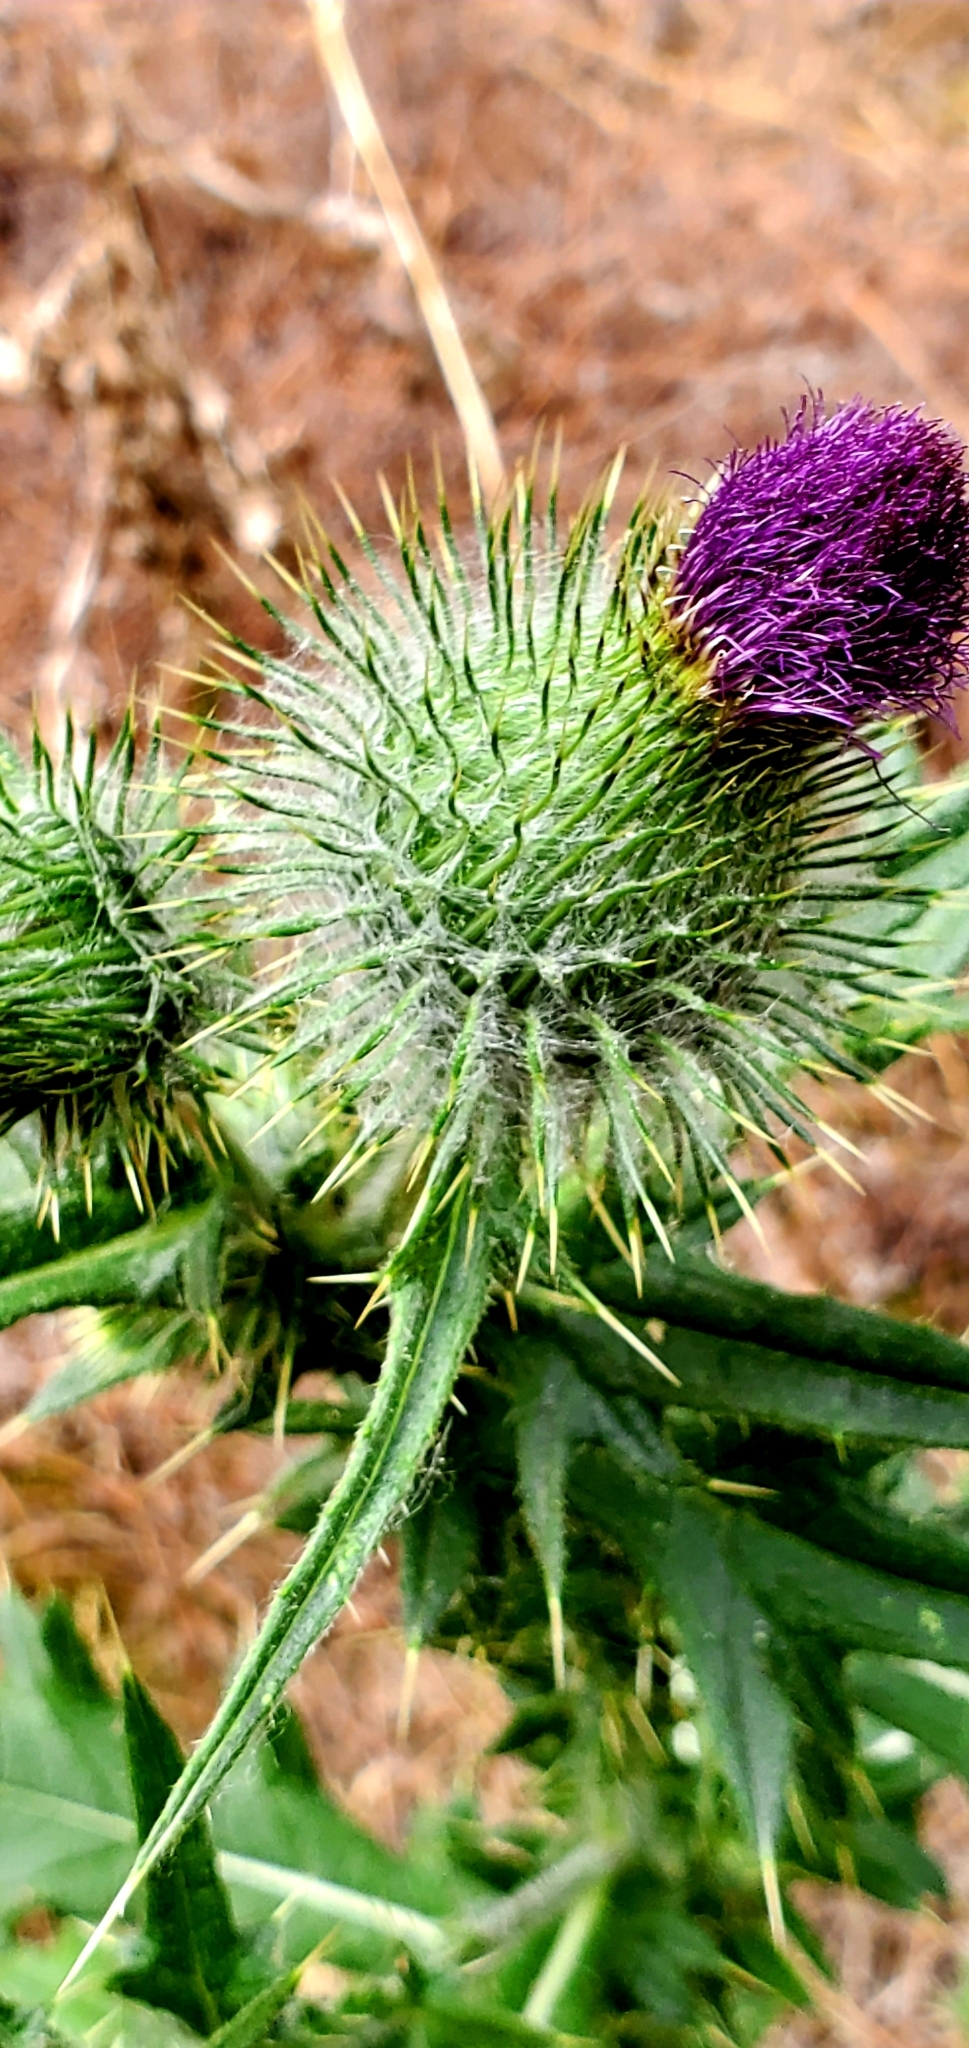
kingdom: Plantae
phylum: Tracheophyta
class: Magnoliopsida
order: Asterales
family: Asteraceae
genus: Cirsium
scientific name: Cirsium vulgare
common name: Bull thistle
